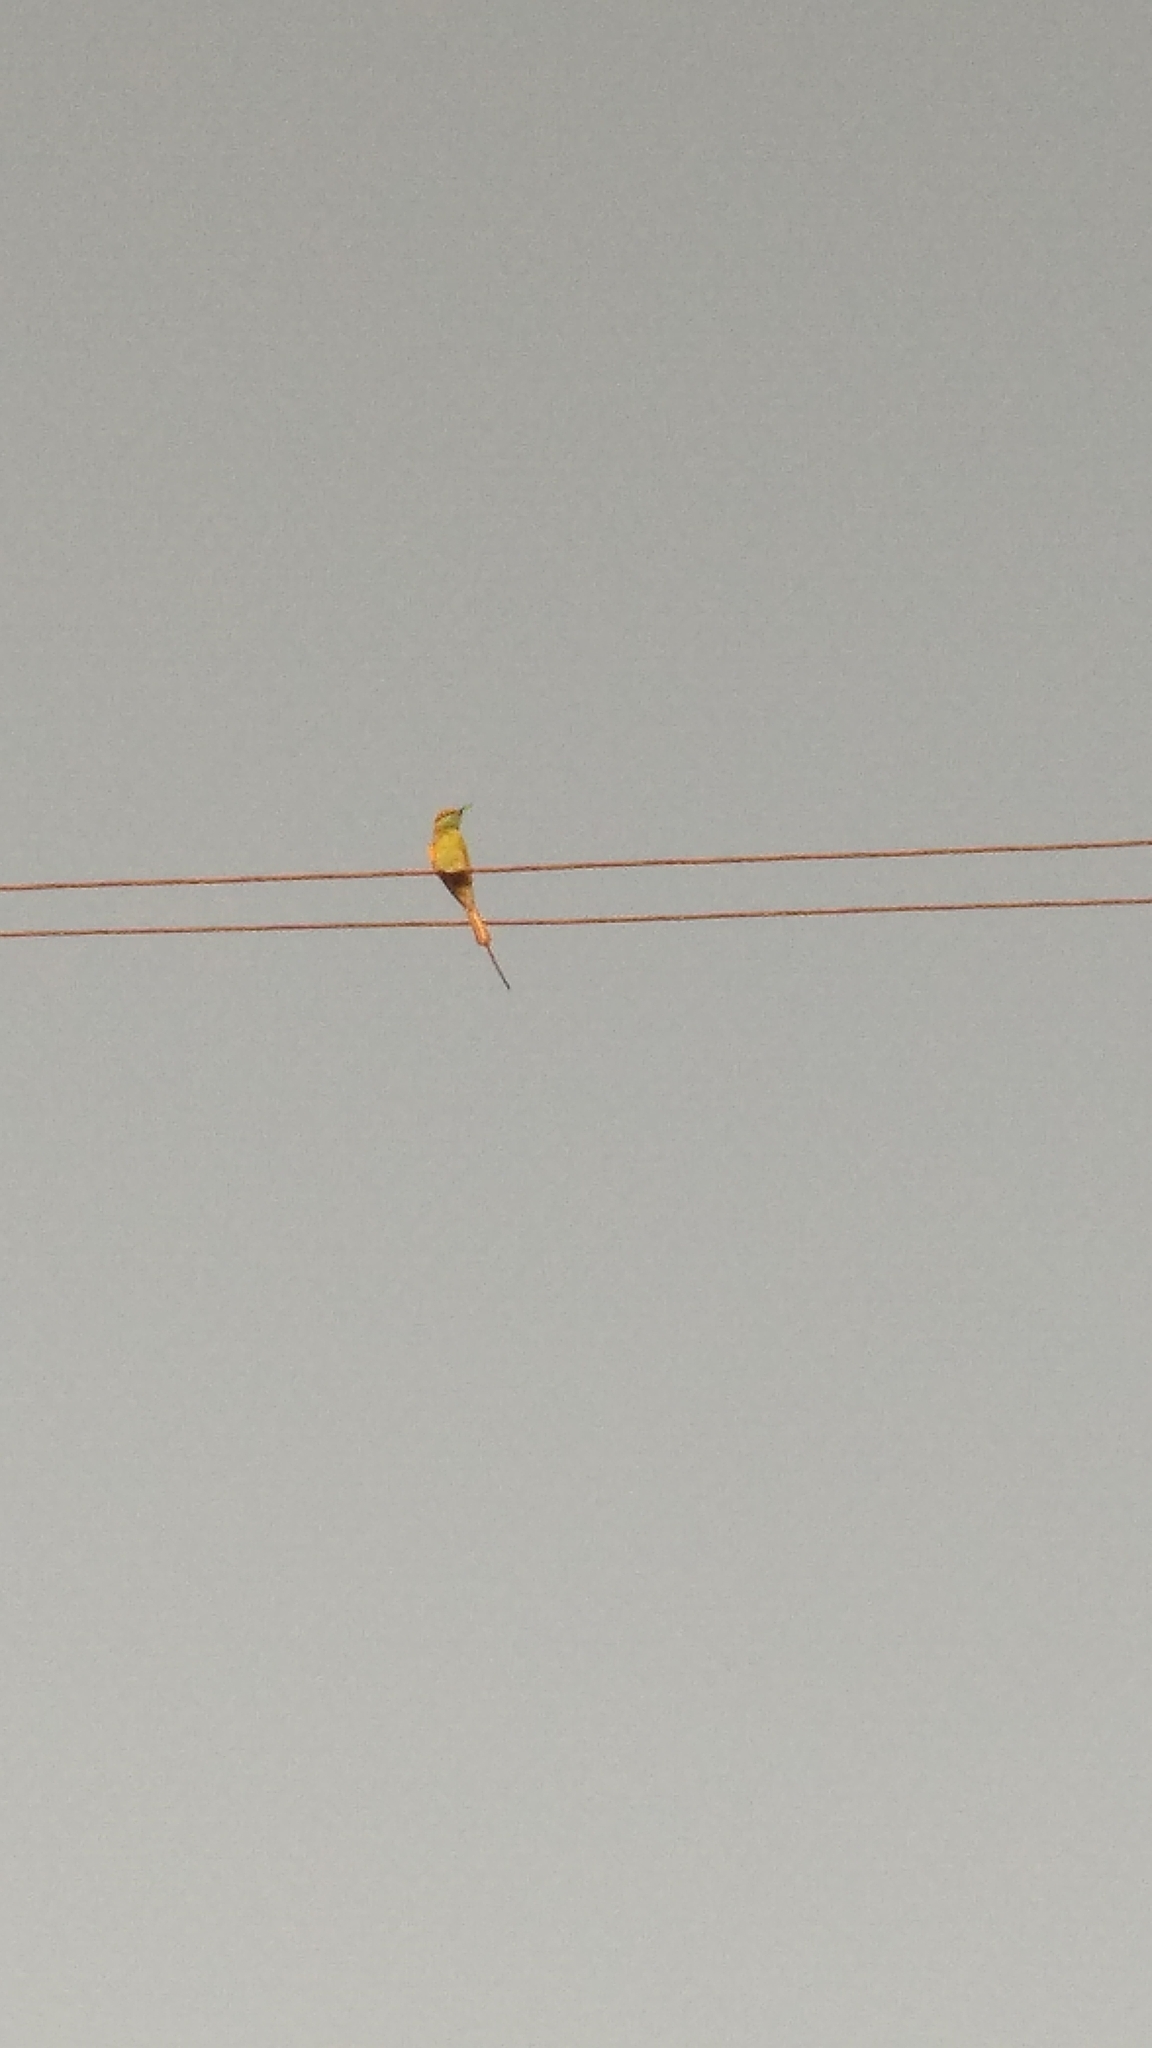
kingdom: Animalia
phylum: Chordata
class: Aves
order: Coraciiformes
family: Meropidae
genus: Merops
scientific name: Merops orientalis
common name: Green bee-eater
